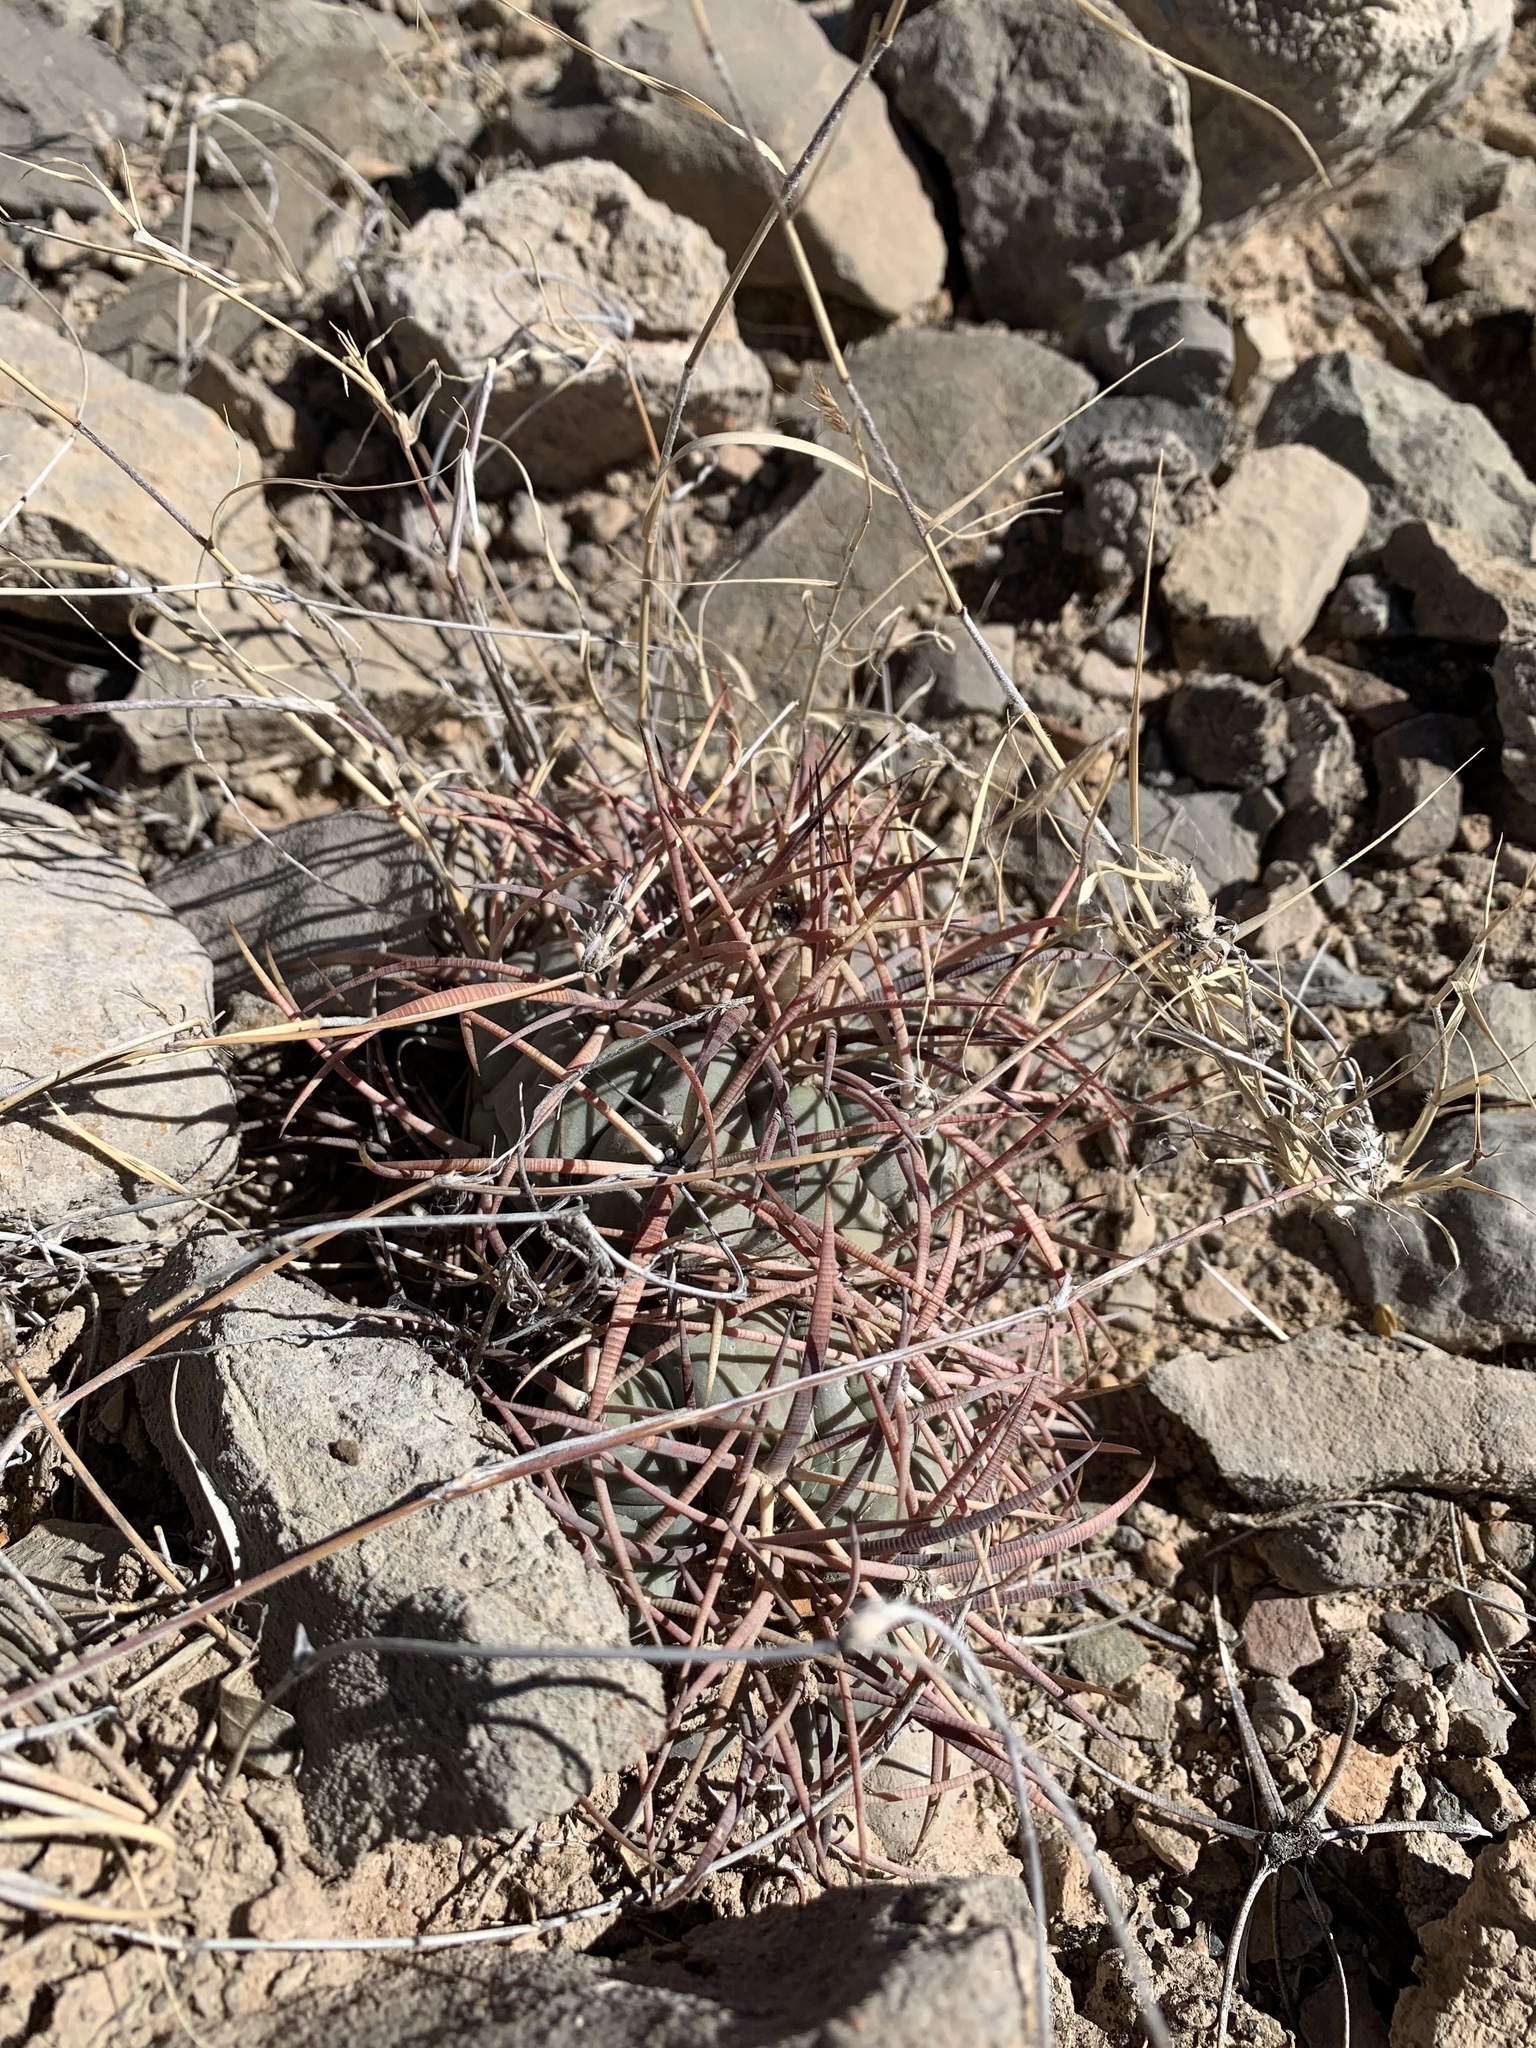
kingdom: Plantae
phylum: Tracheophyta
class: Magnoliopsida
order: Caryophyllales
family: Cactaceae
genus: Echinocactus
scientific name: Echinocactus horizonthalonius
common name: Devilshead
